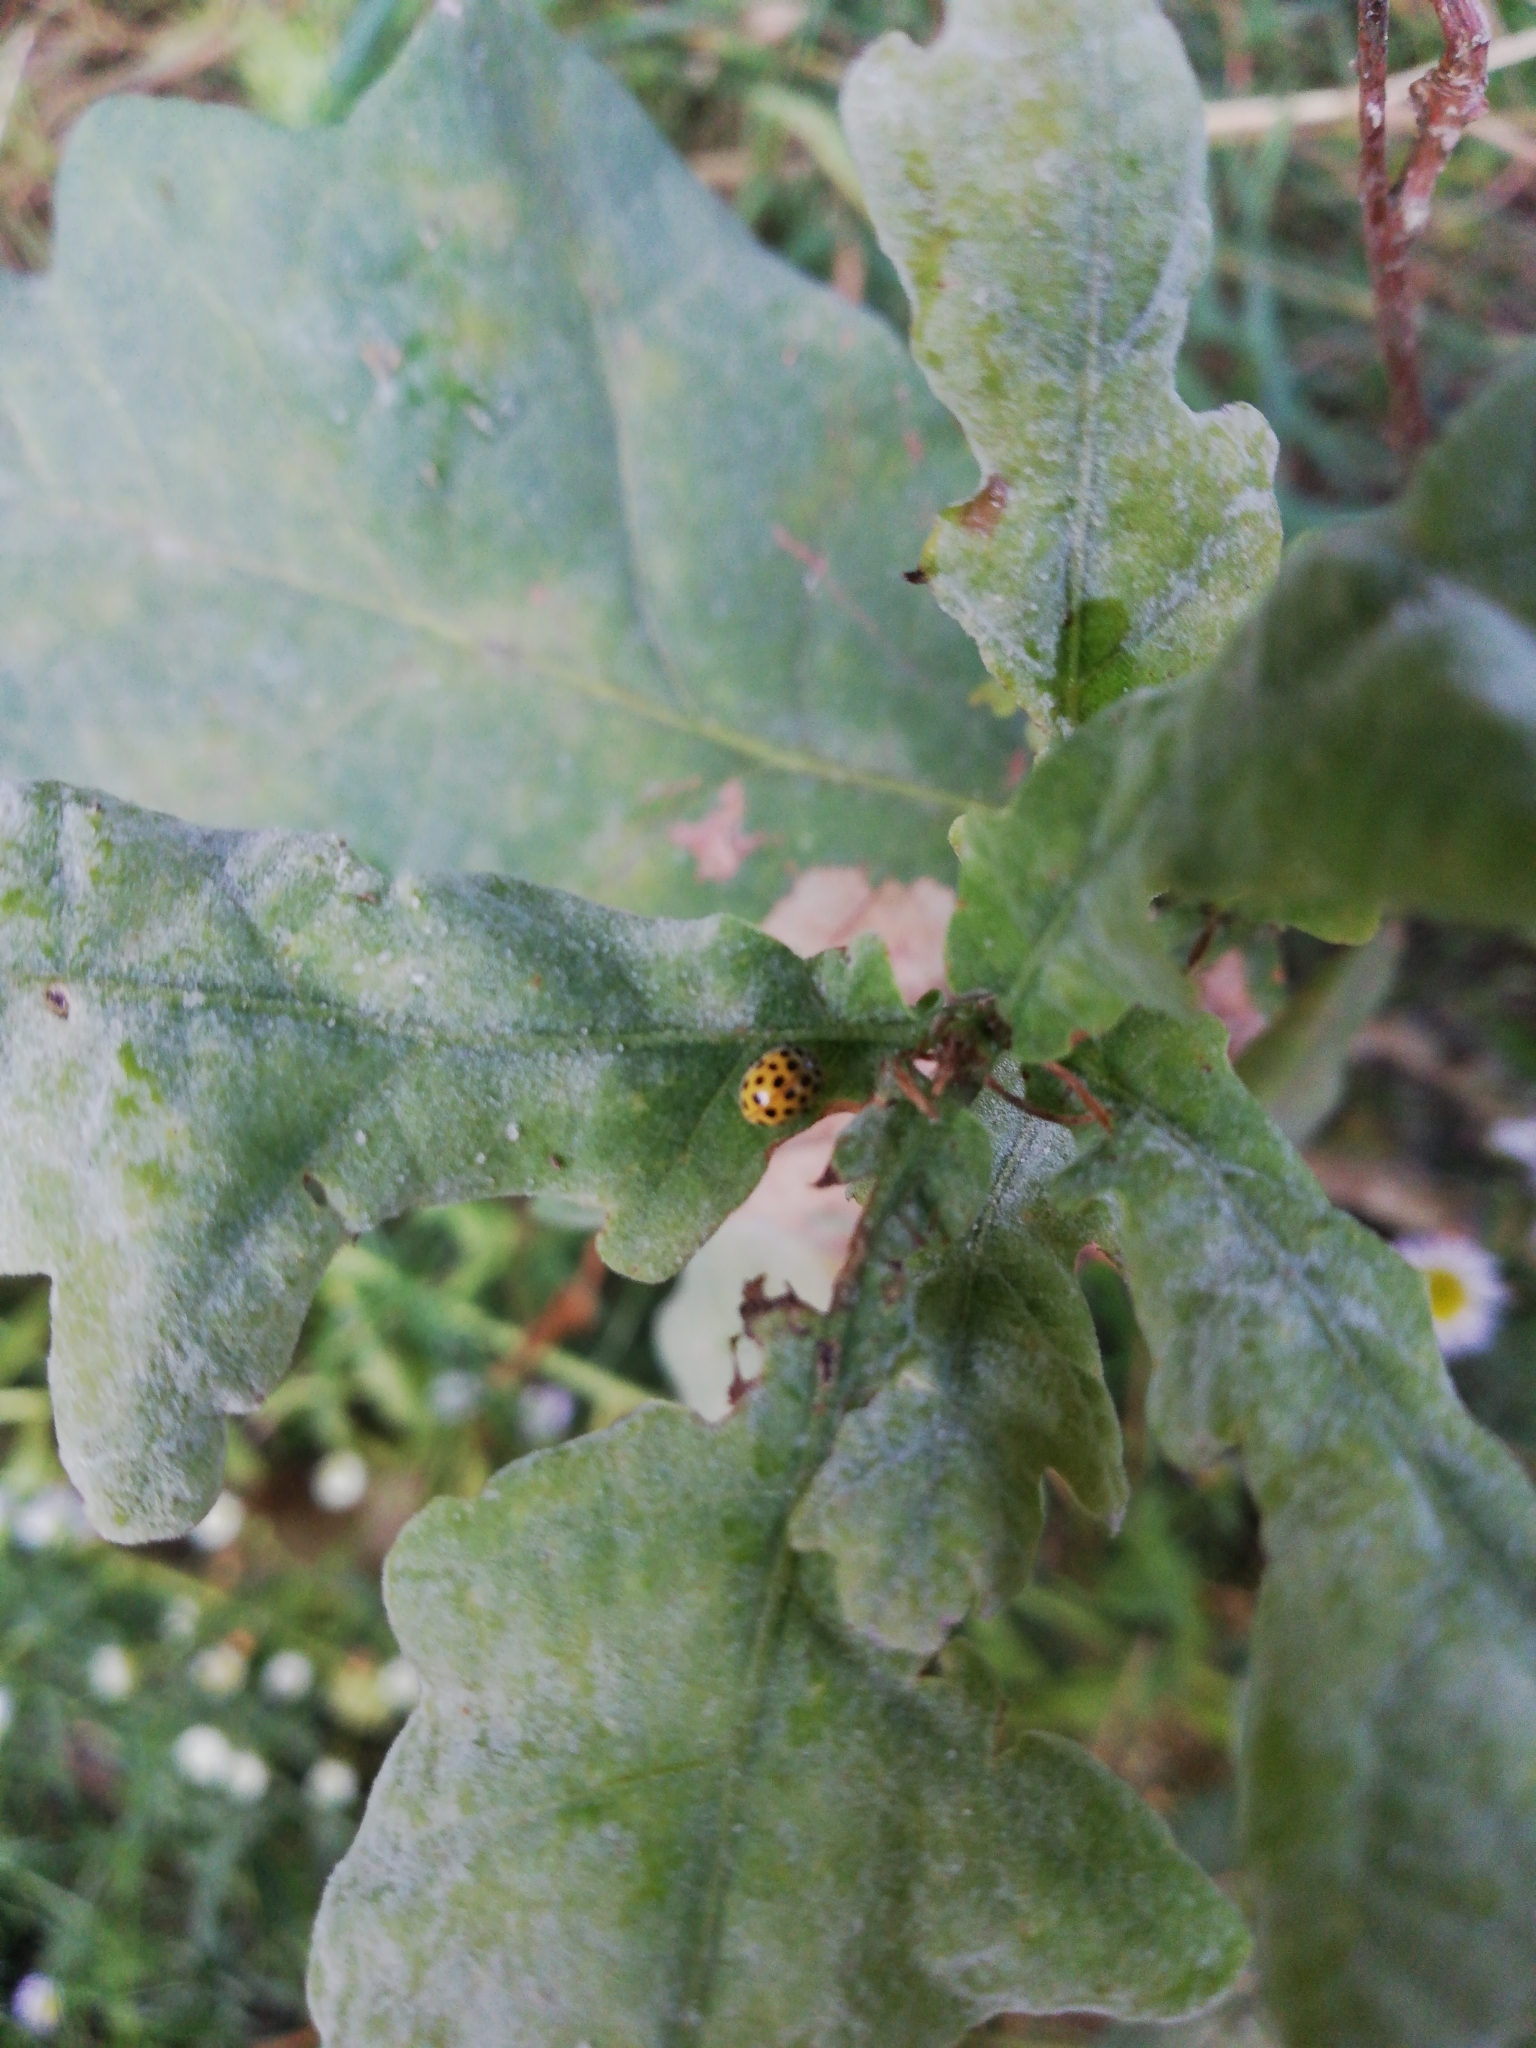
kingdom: Animalia
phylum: Arthropoda
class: Insecta
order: Coleoptera
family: Coccinellidae
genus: Psyllobora
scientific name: Psyllobora vigintiduopunctata
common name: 22-spot ladybird
